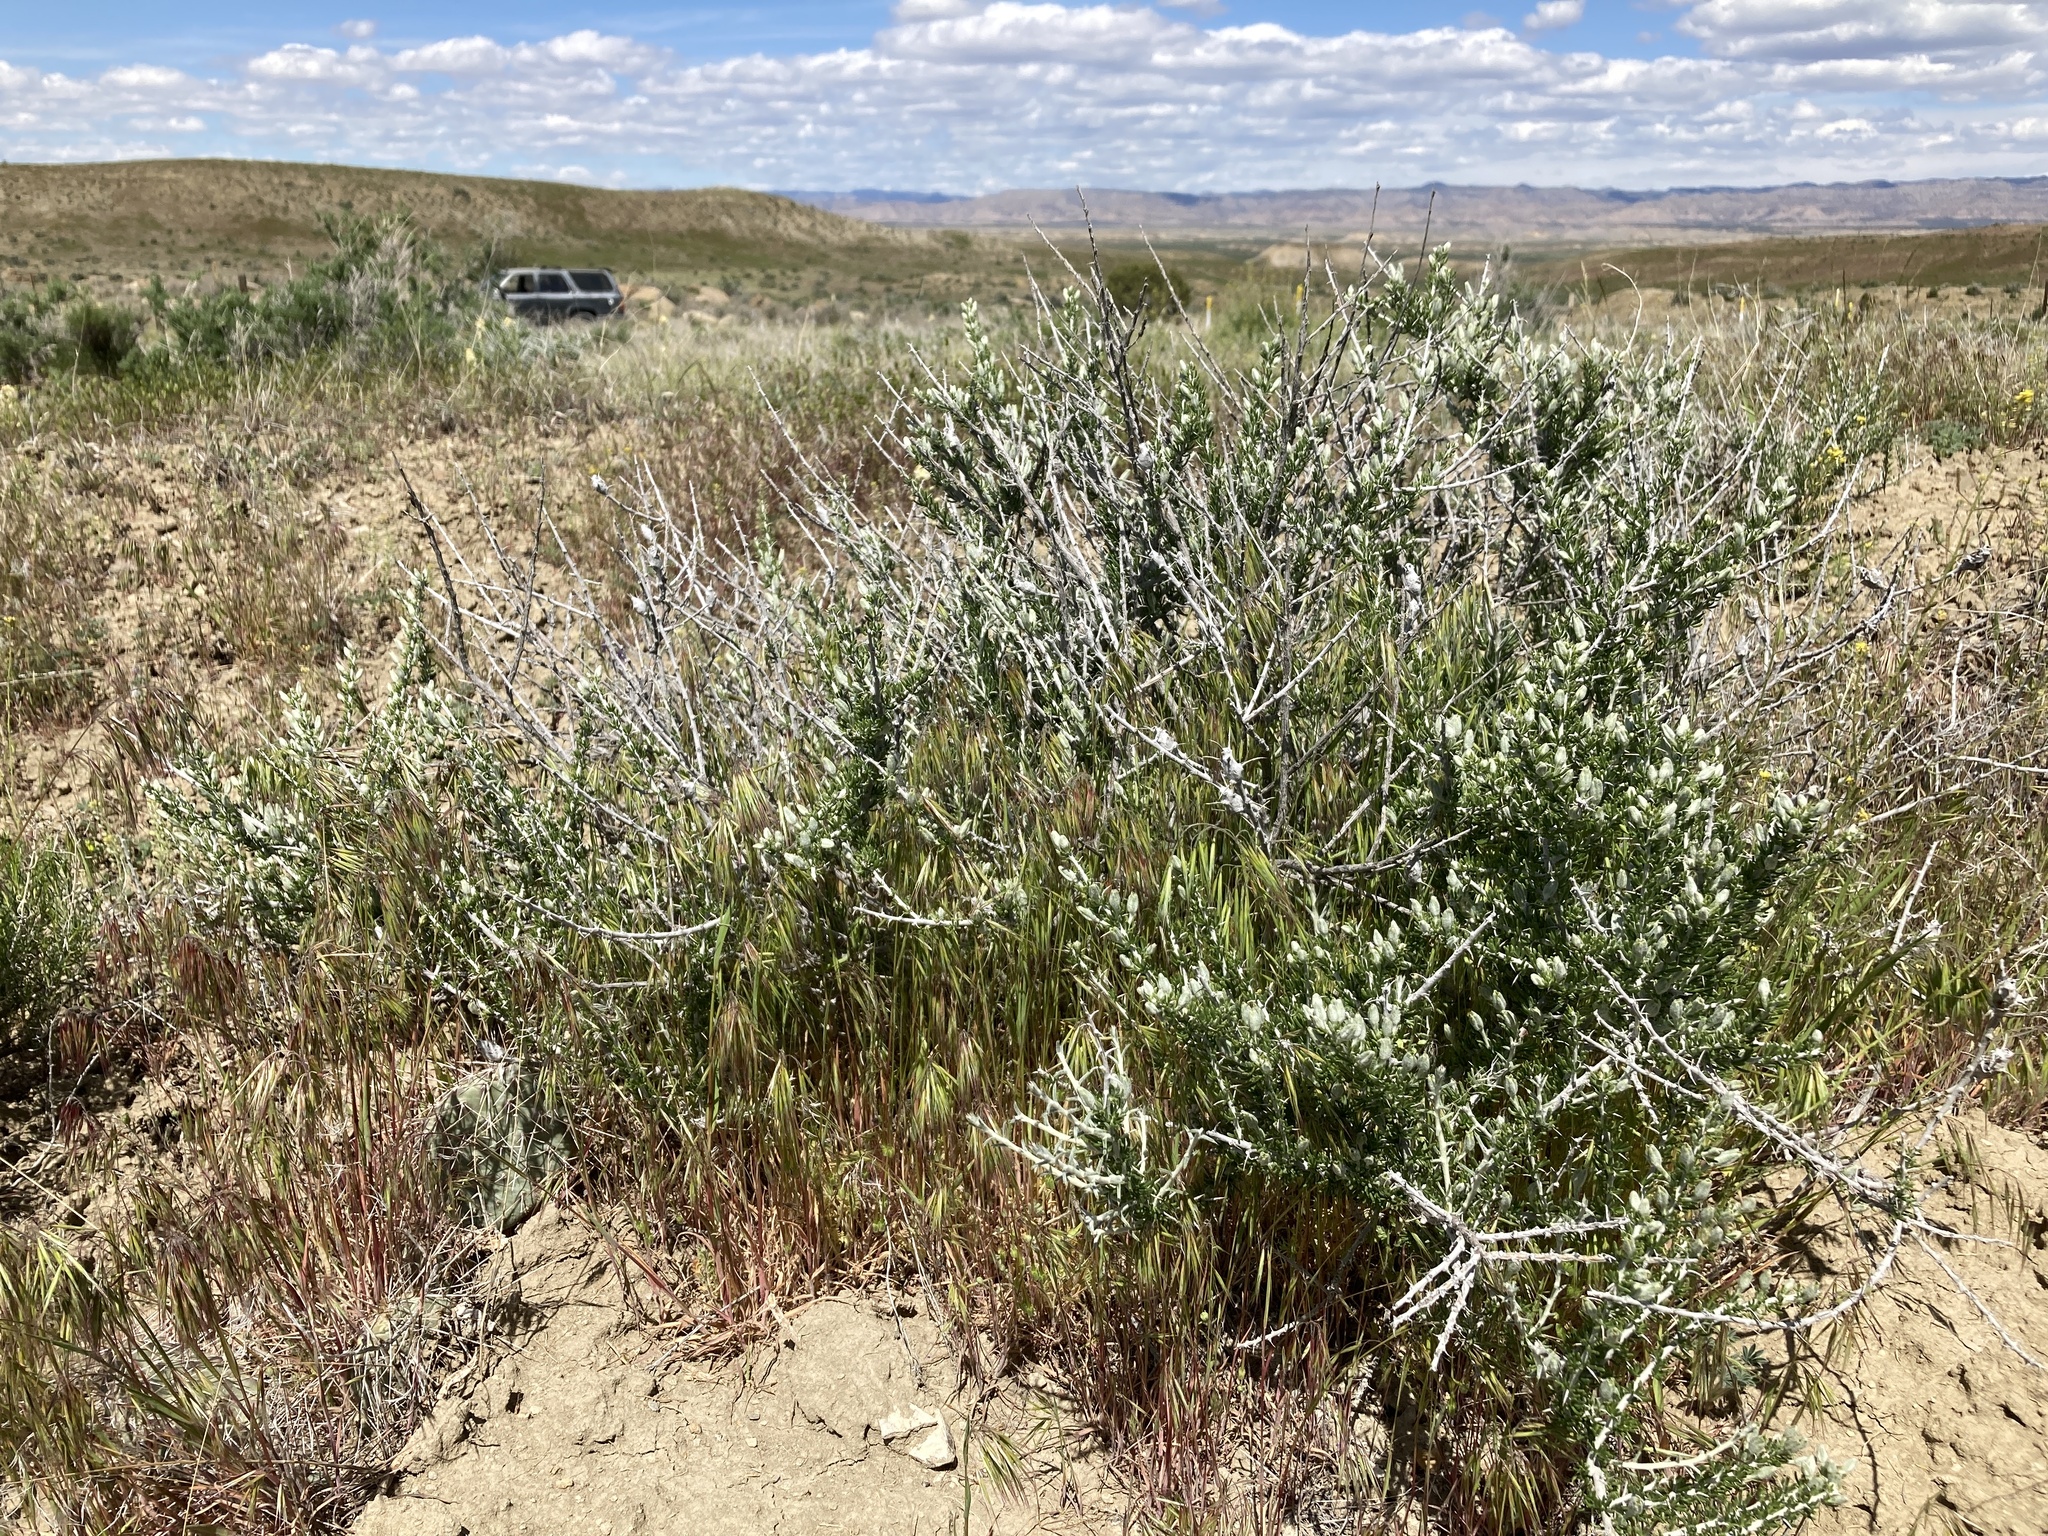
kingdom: Plantae
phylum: Tracheophyta
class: Magnoliopsida
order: Asterales
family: Asteraceae
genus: Tetradymia
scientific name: Tetradymia spinosa
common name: Thorny horsebrush
